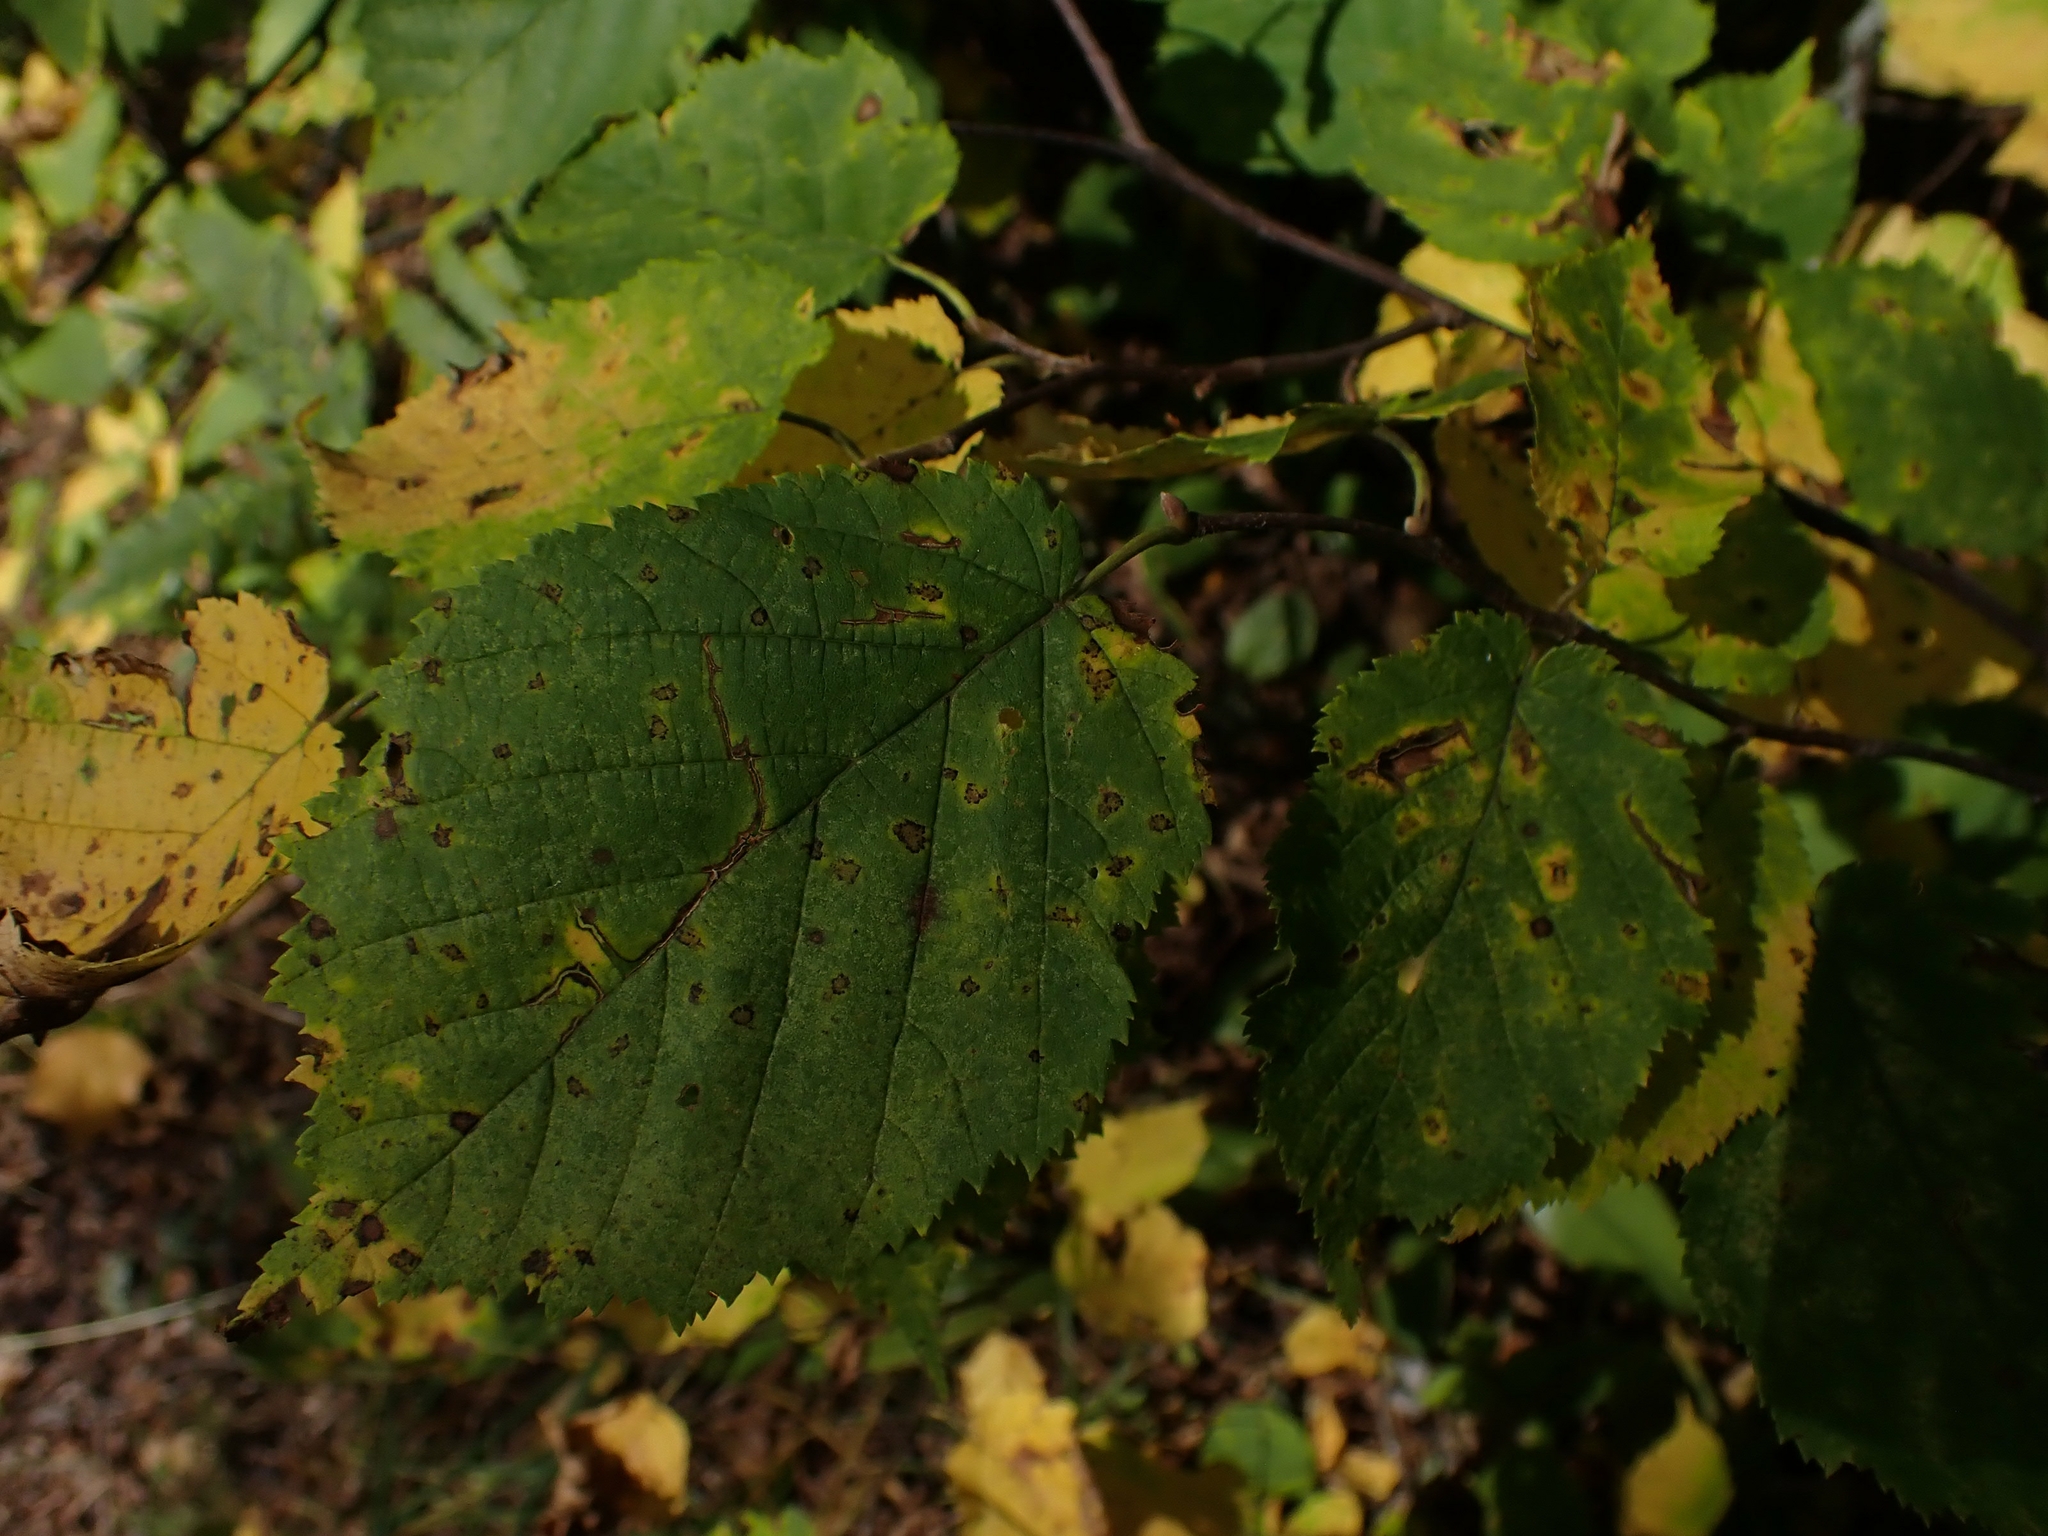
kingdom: Plantae
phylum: Tracheophyta
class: Magnoliopsida
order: Fagales
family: Betulaceae
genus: Corylus
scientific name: Corylus cornuta
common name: Beaked hazel
